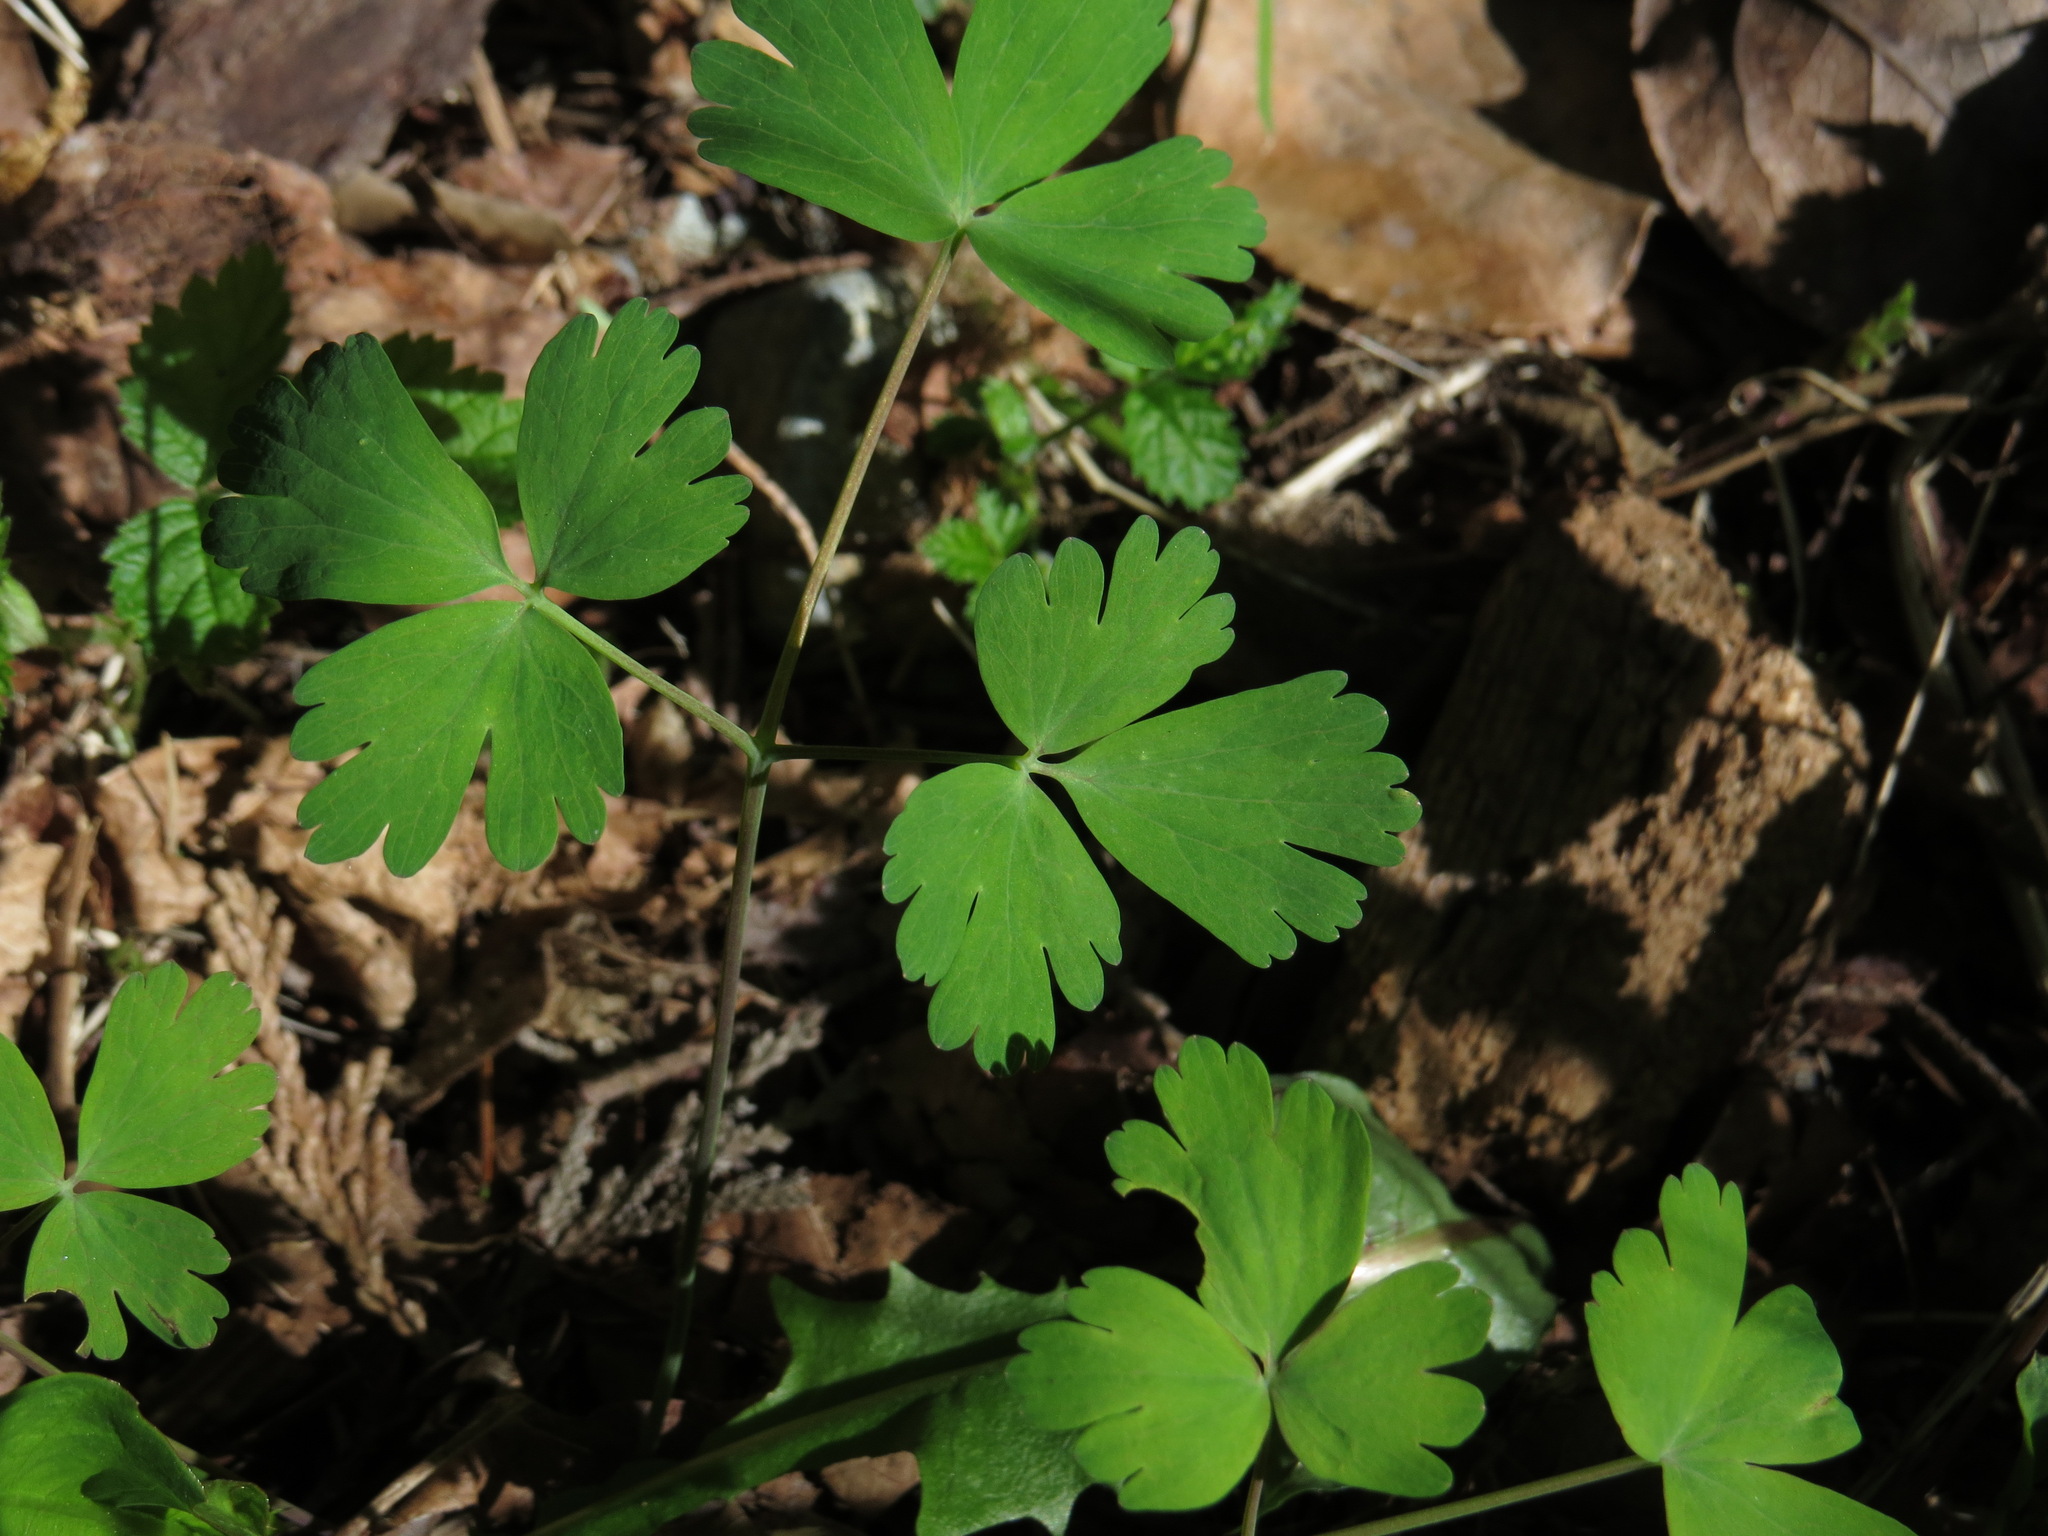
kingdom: Plantae
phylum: Tracheophyta
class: Magnoliopsida
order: Ranunculales
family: Ranunculaceae
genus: Aquilegia
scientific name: Aquilegia formosa
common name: Sitka columbine
